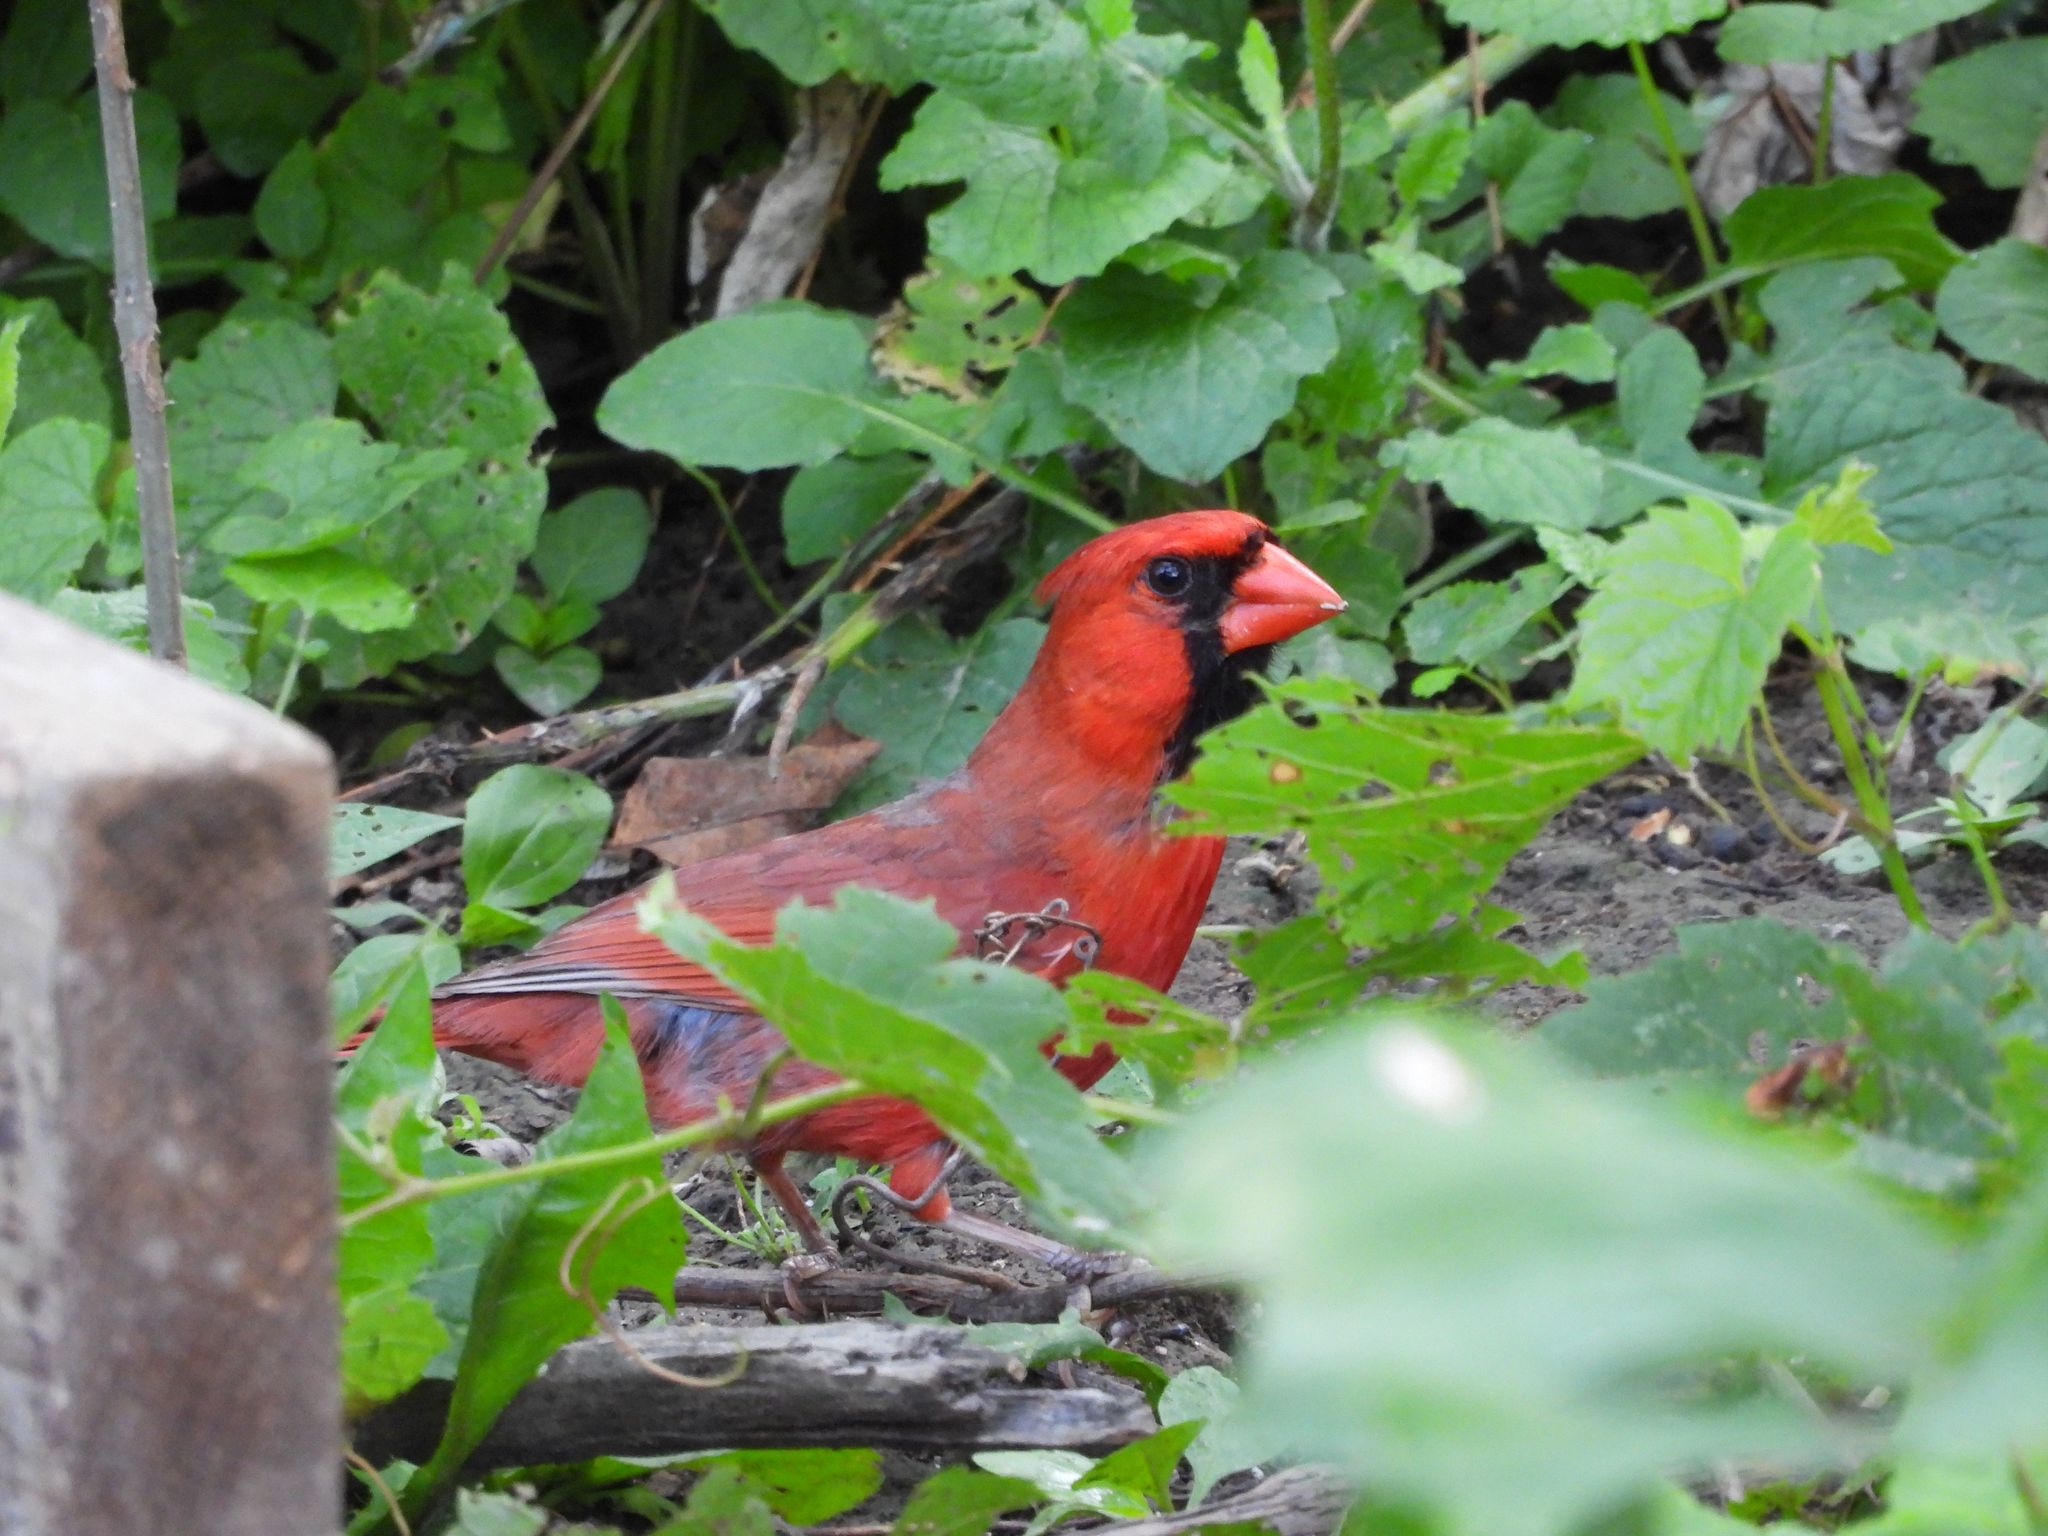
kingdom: Animalia
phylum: Chordata
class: Aves
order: Passeriformes
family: Cardinalidae
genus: Cardinalis
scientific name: Cardinalis cardinalis
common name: Northern cardinal
